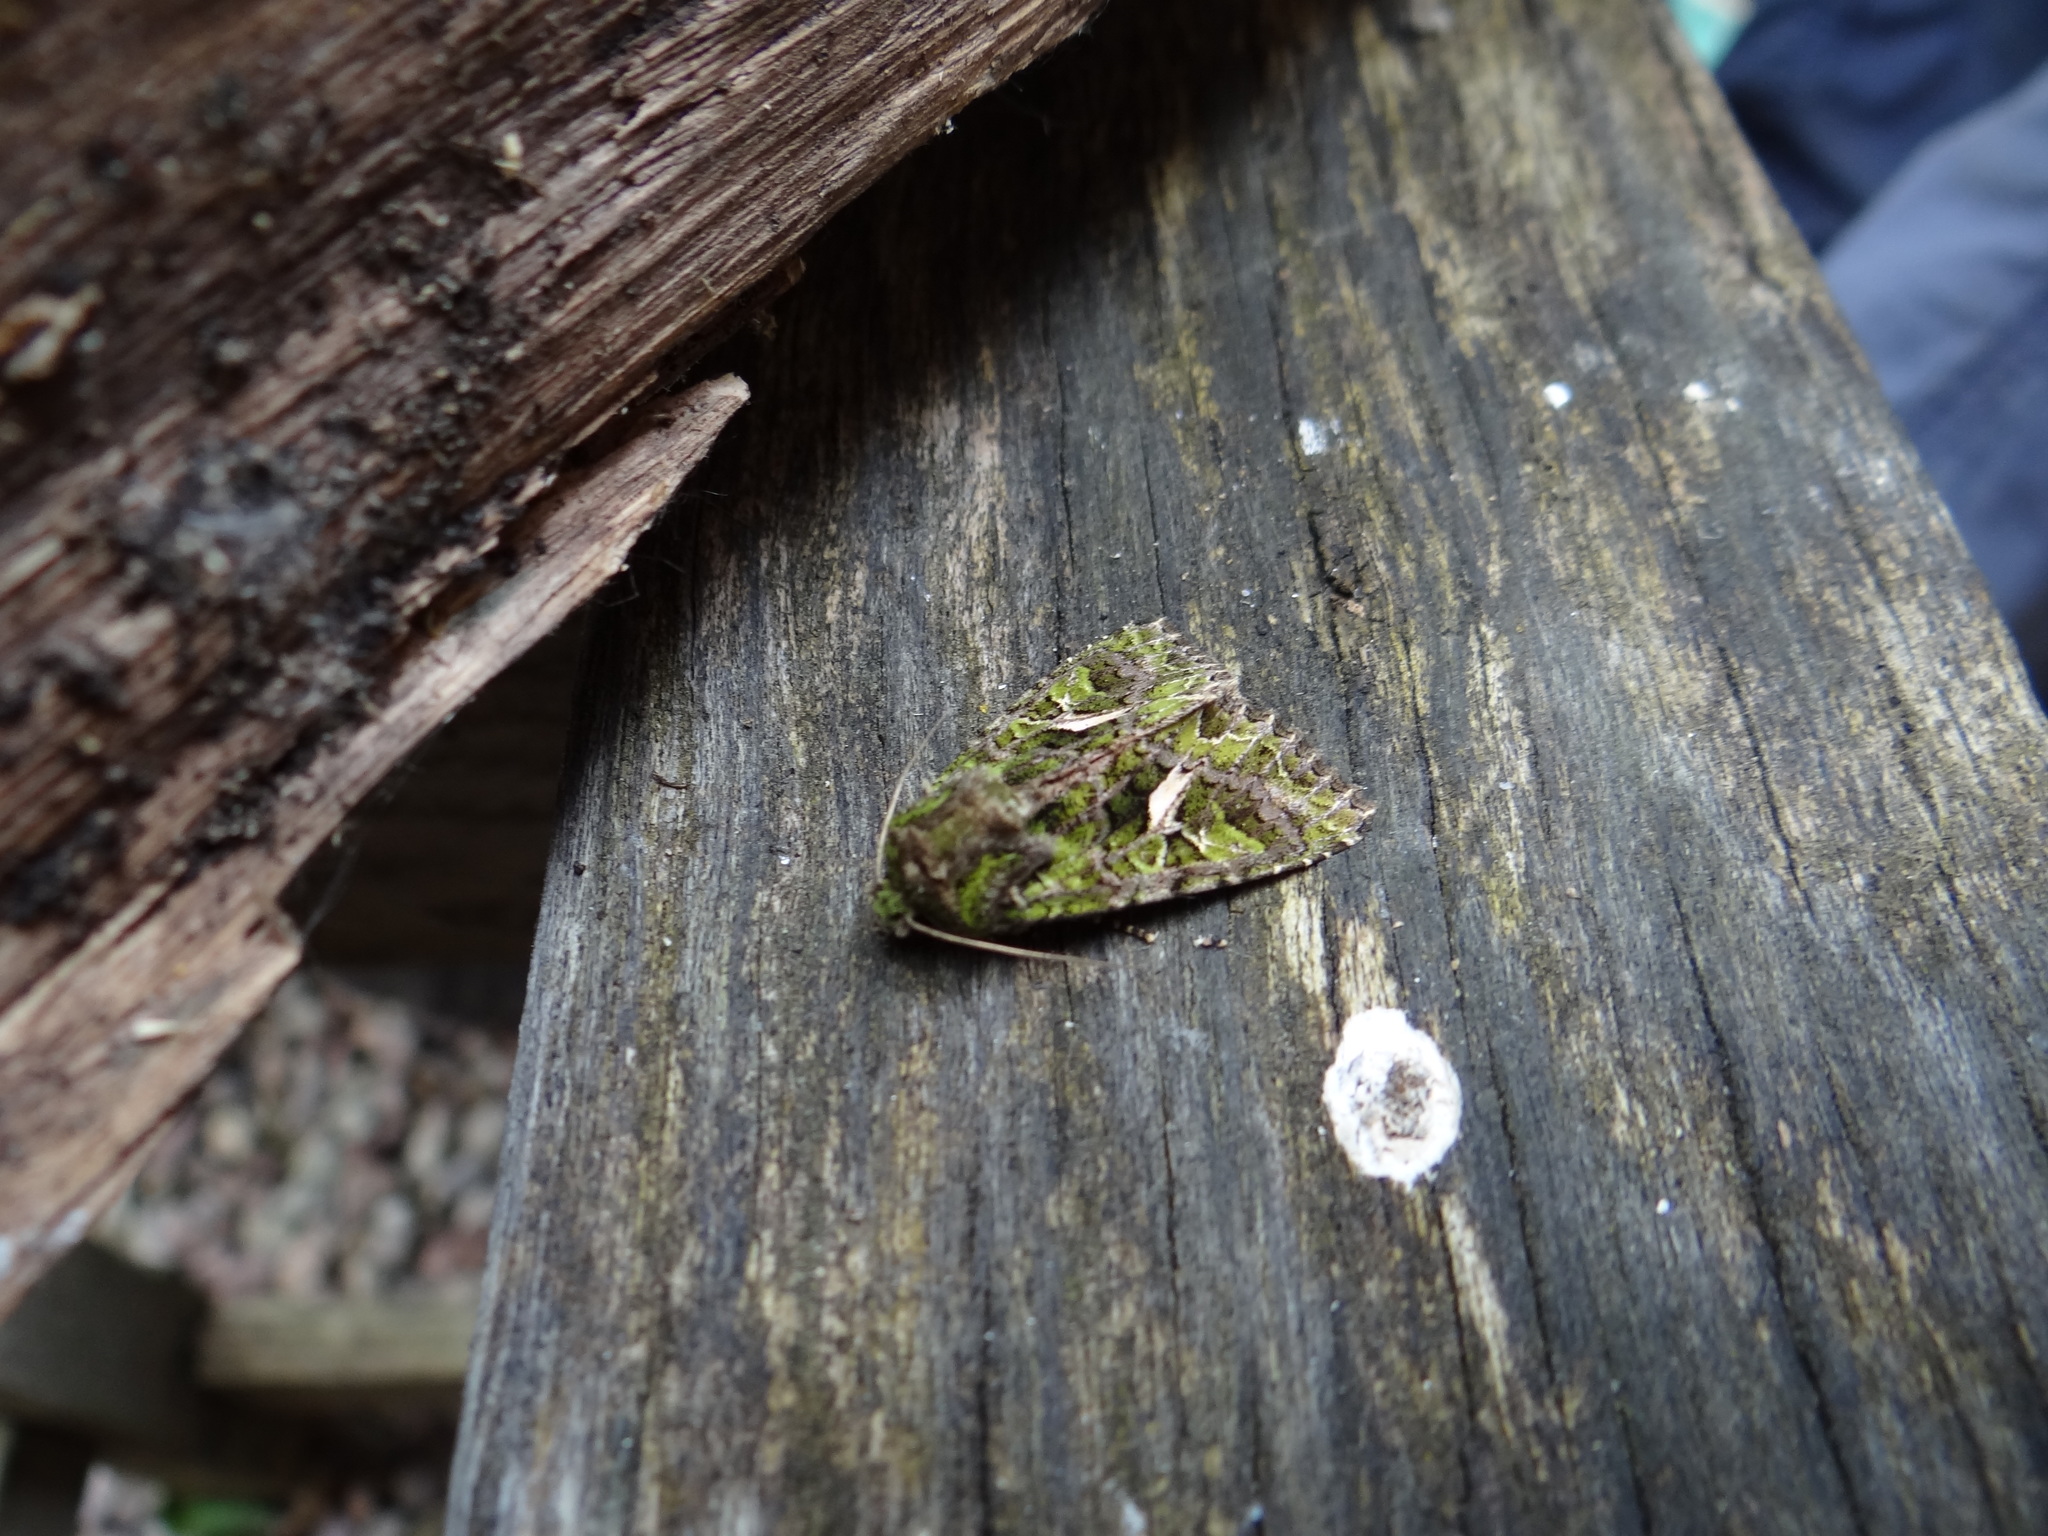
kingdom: Animalia
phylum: Arthropoda
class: Insecta
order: Lepidoptera
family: Noctuidae
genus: Trachea
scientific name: Trachea atriplicis
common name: Orache moth
